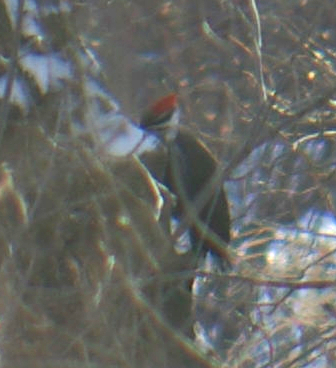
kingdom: Animalia
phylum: Chordata
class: Aves
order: Piciformes
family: Picidae
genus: Dryocopus
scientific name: Dryocopus pileatus
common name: Pileated woodpecker
